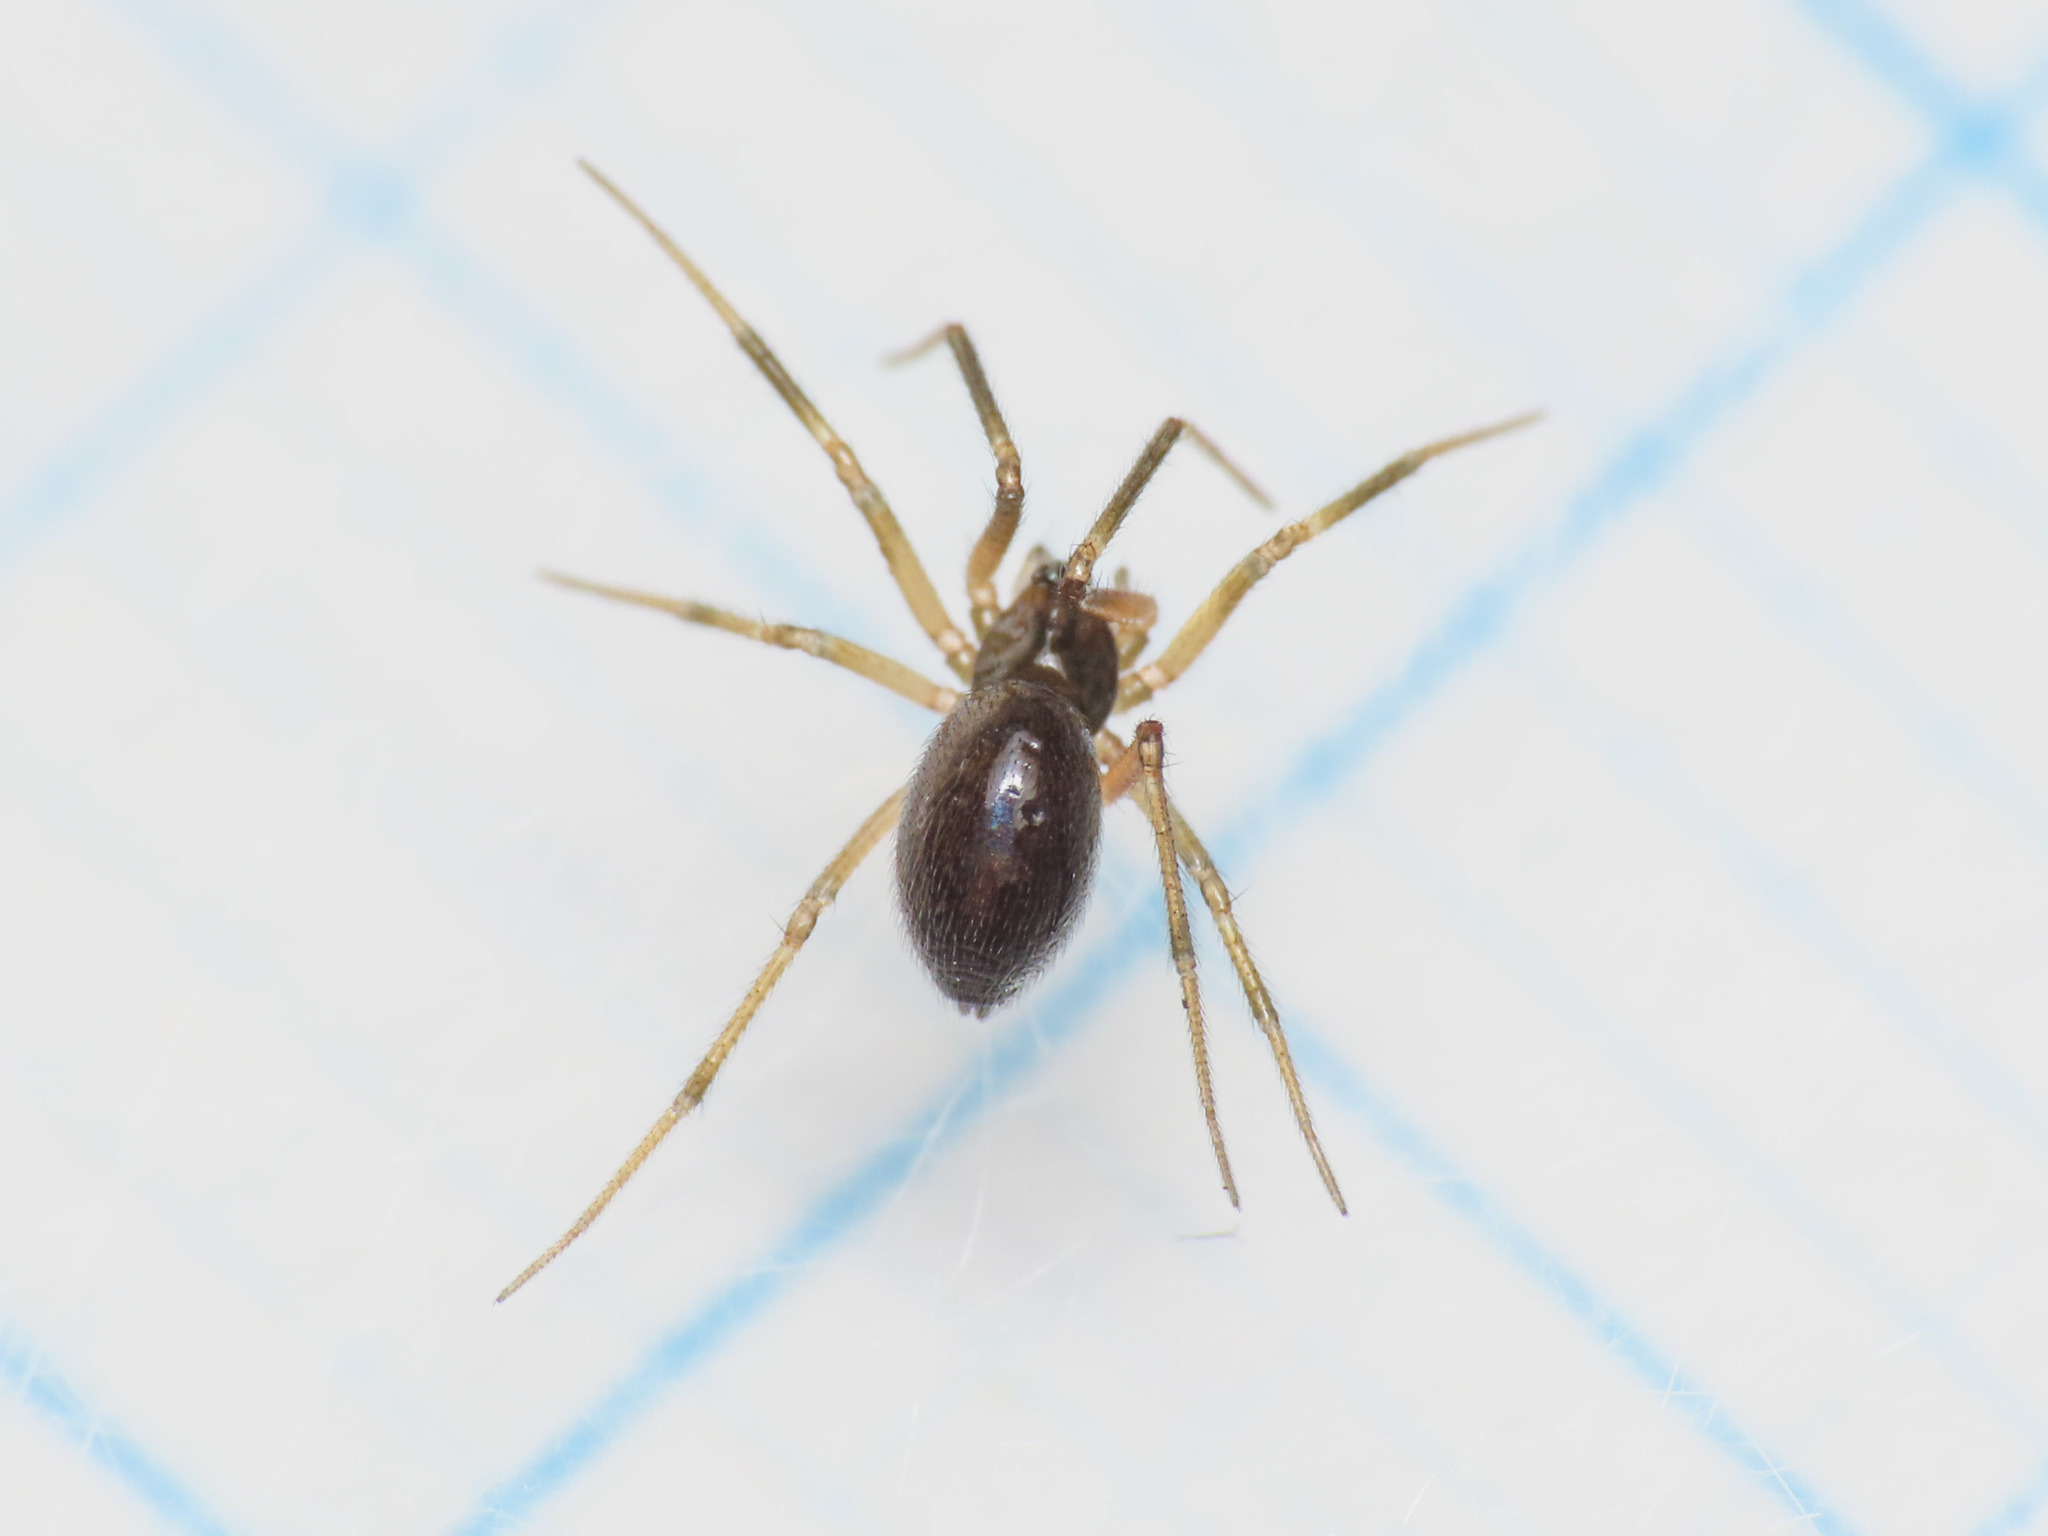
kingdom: Animalia
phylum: Arthropoda
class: Arachnida
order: Araneae
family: Linyphiidae
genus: Sintula
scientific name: Sintula retroversus
